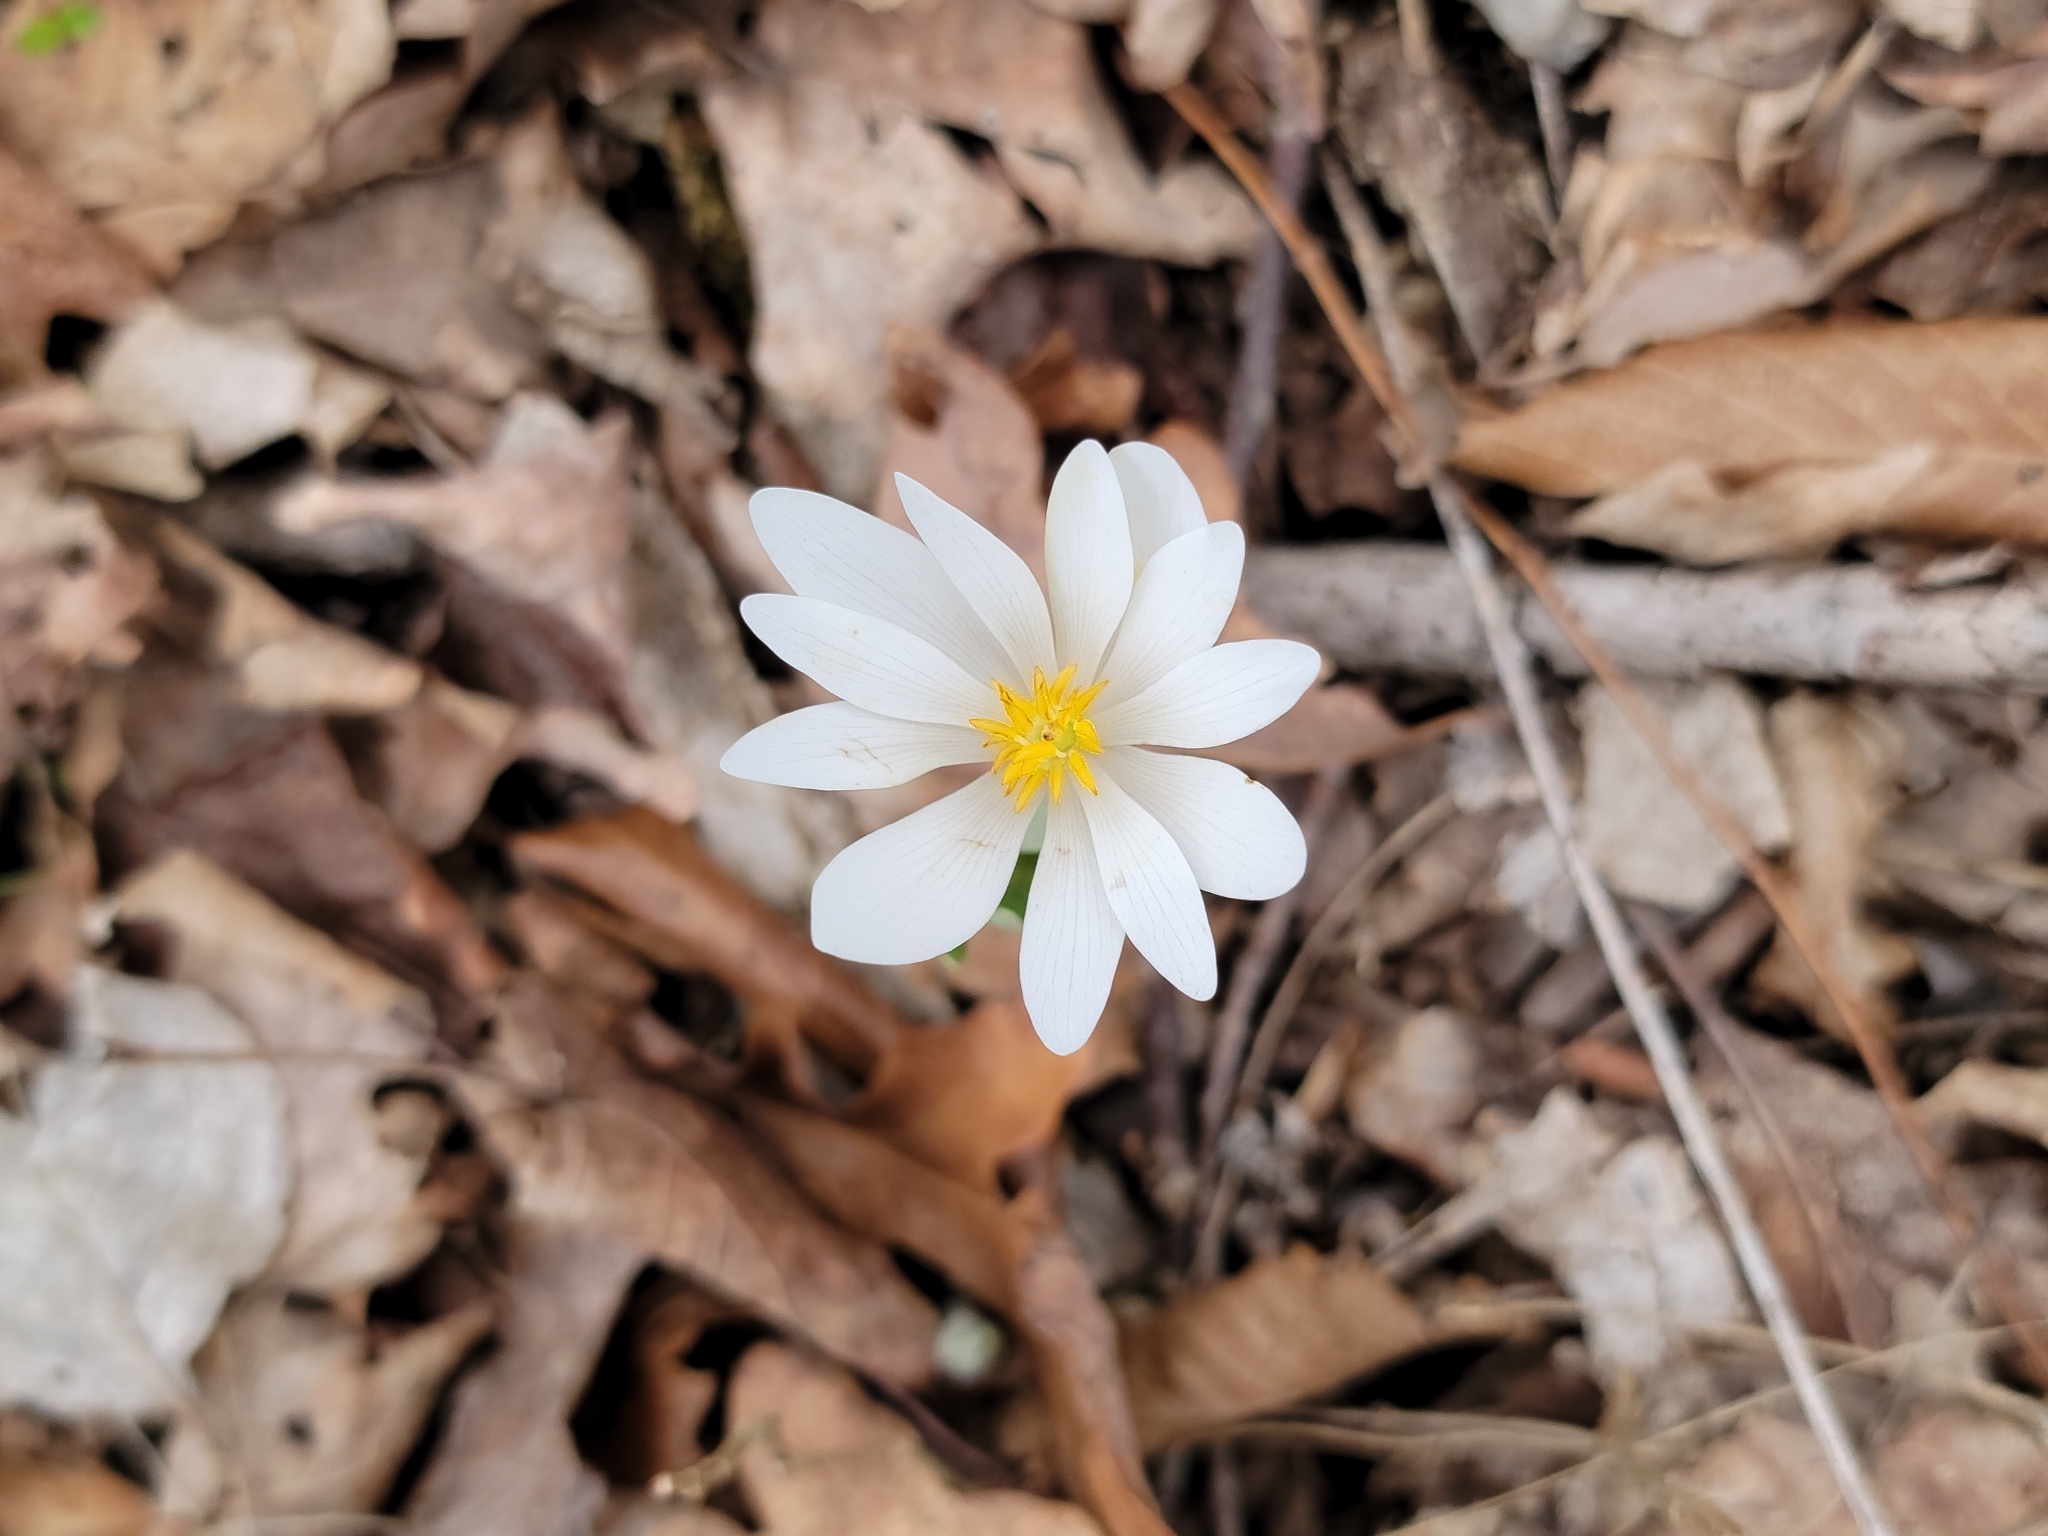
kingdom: Plantae
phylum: Tracheophyta
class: Magnoliopsida
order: Ranunculales
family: Papaveraceae
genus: Sanguinaria
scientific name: Sanguinaria canadensis
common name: Bloodroot
